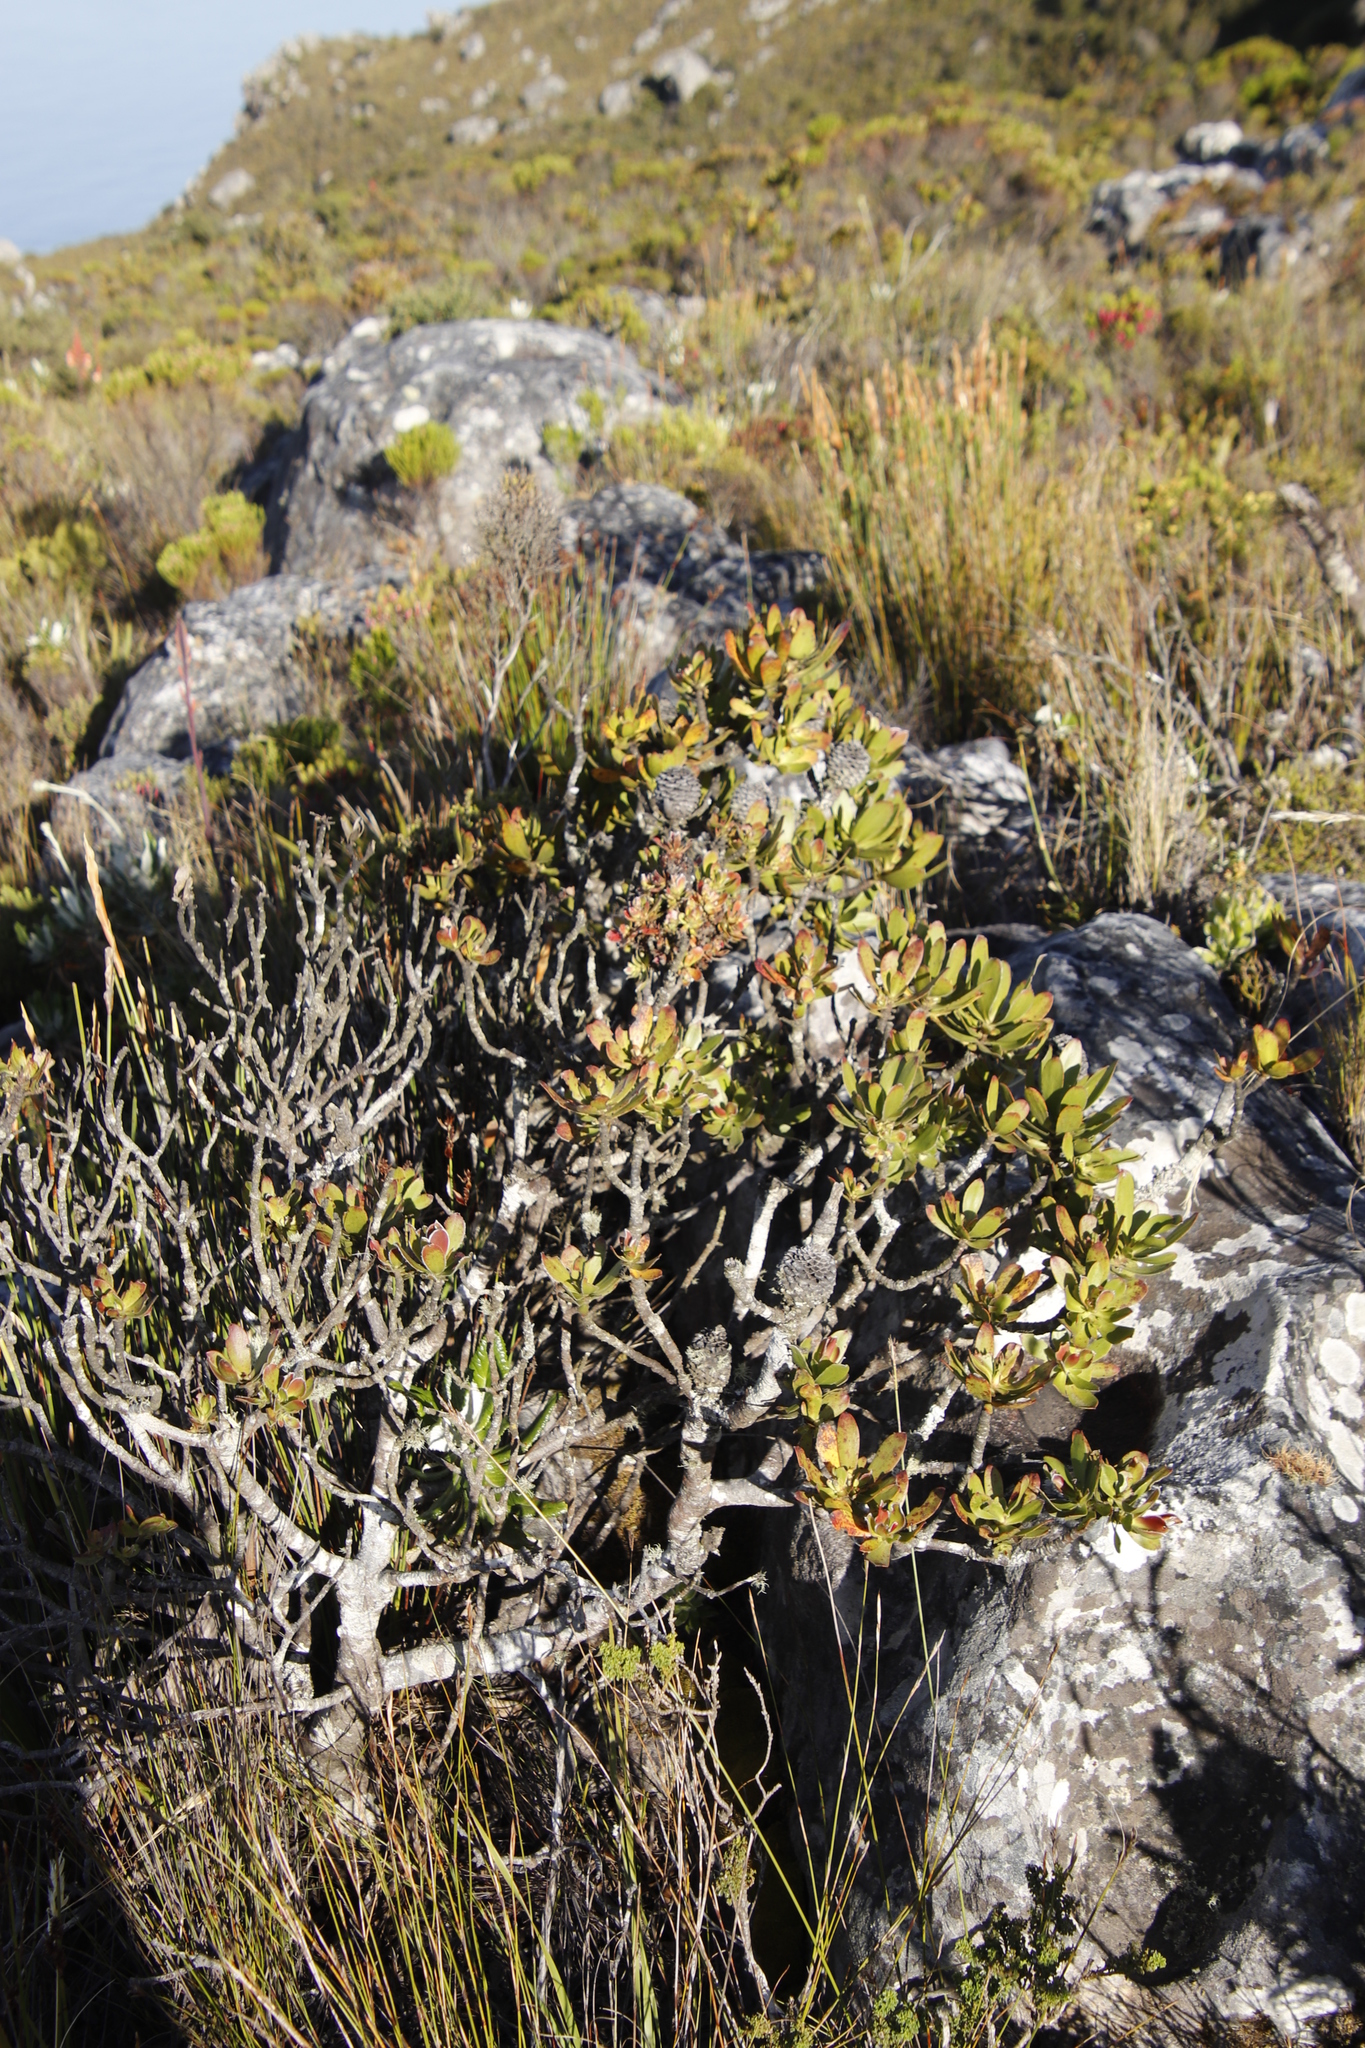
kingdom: Plantae
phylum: Tracheophyta
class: Magnoliopsida
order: Proteales
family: Proteaceae
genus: Leucadendron
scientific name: Leucadendron strobilinum
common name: Mountain rose
